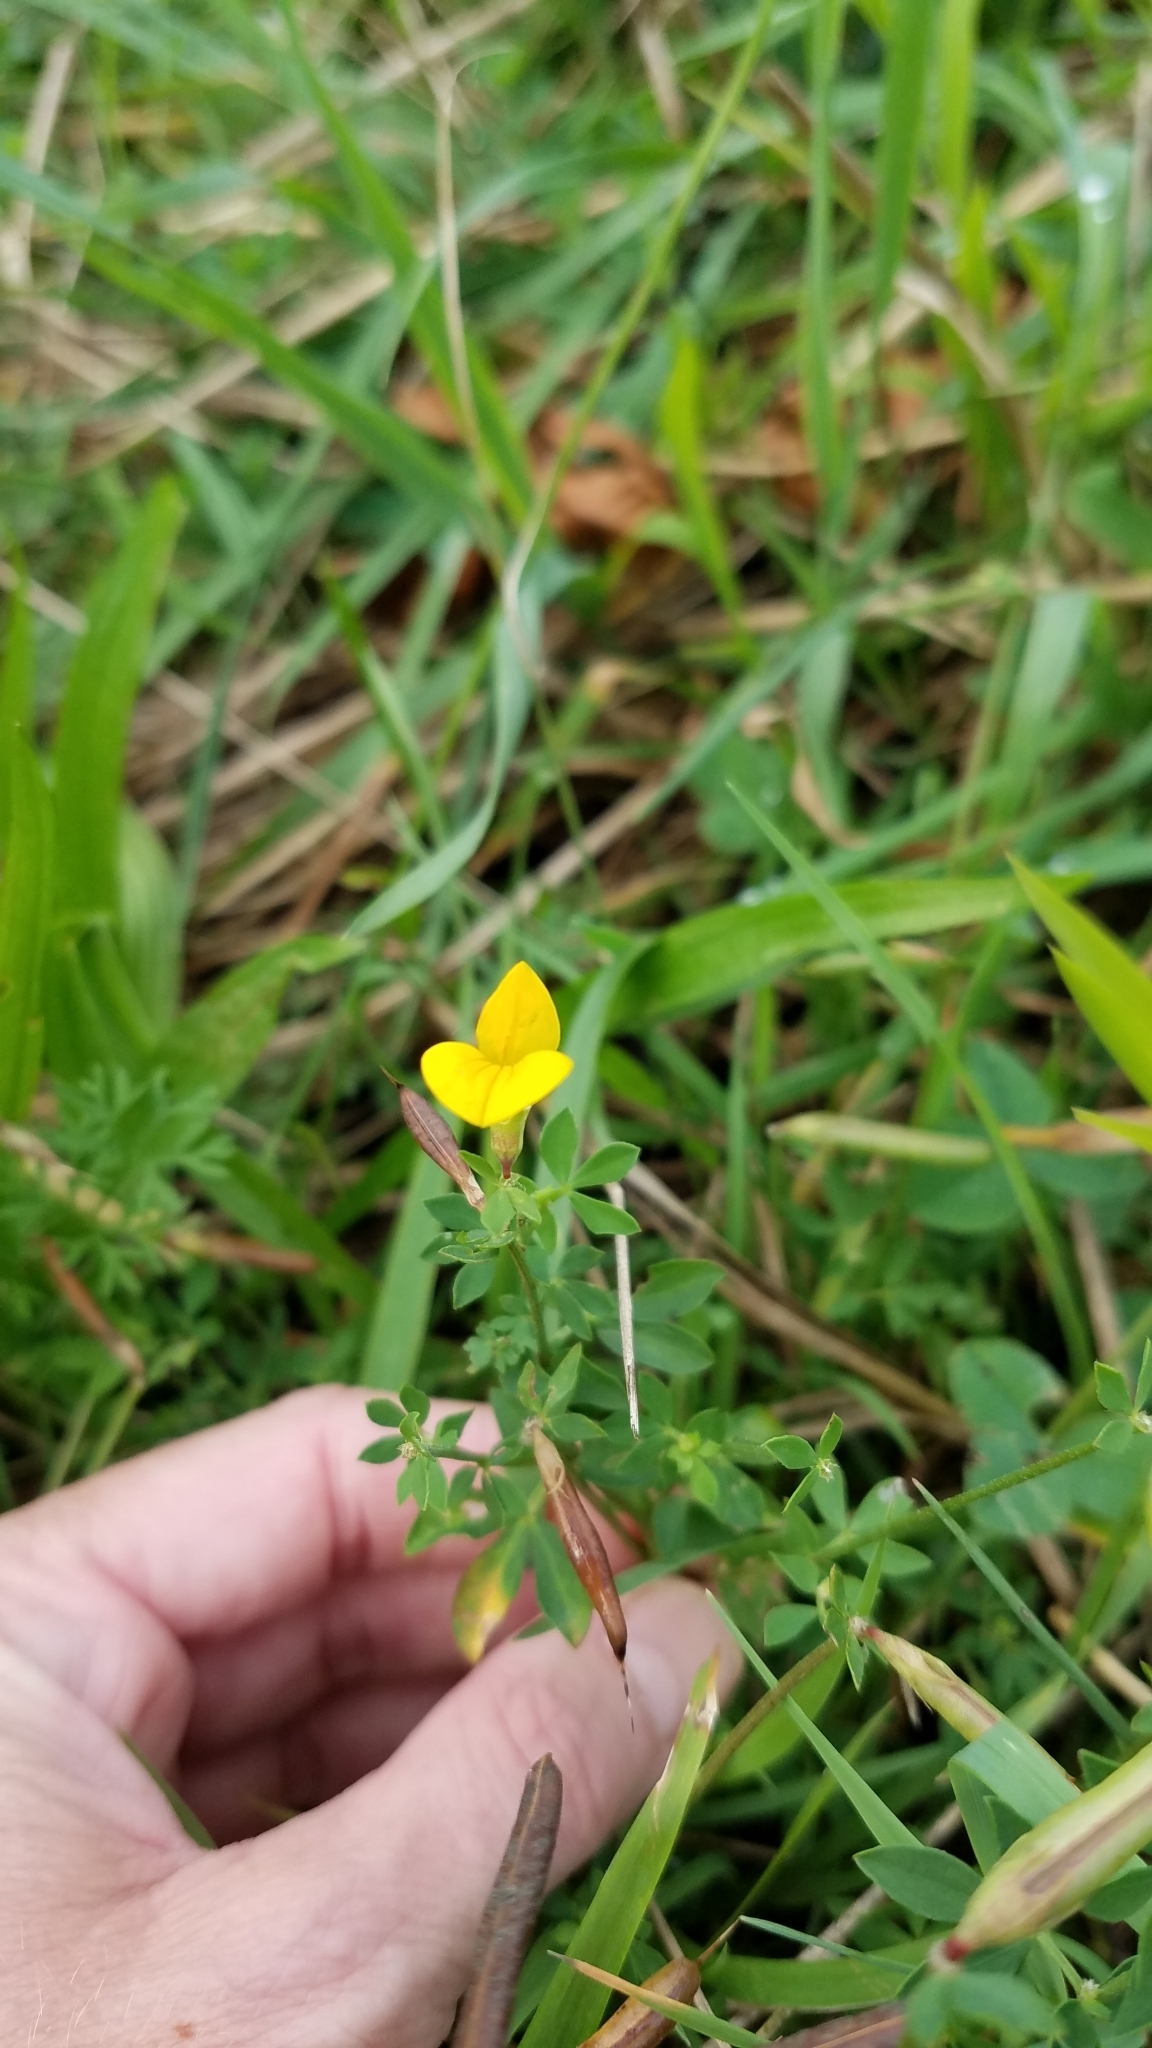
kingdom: Plantae
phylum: Tracheophyta
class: Magnoliopsida
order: Fabales
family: Fabaceae
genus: Lotus
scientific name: Lotus corniculatus
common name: Common bird's-foot-trefoil
